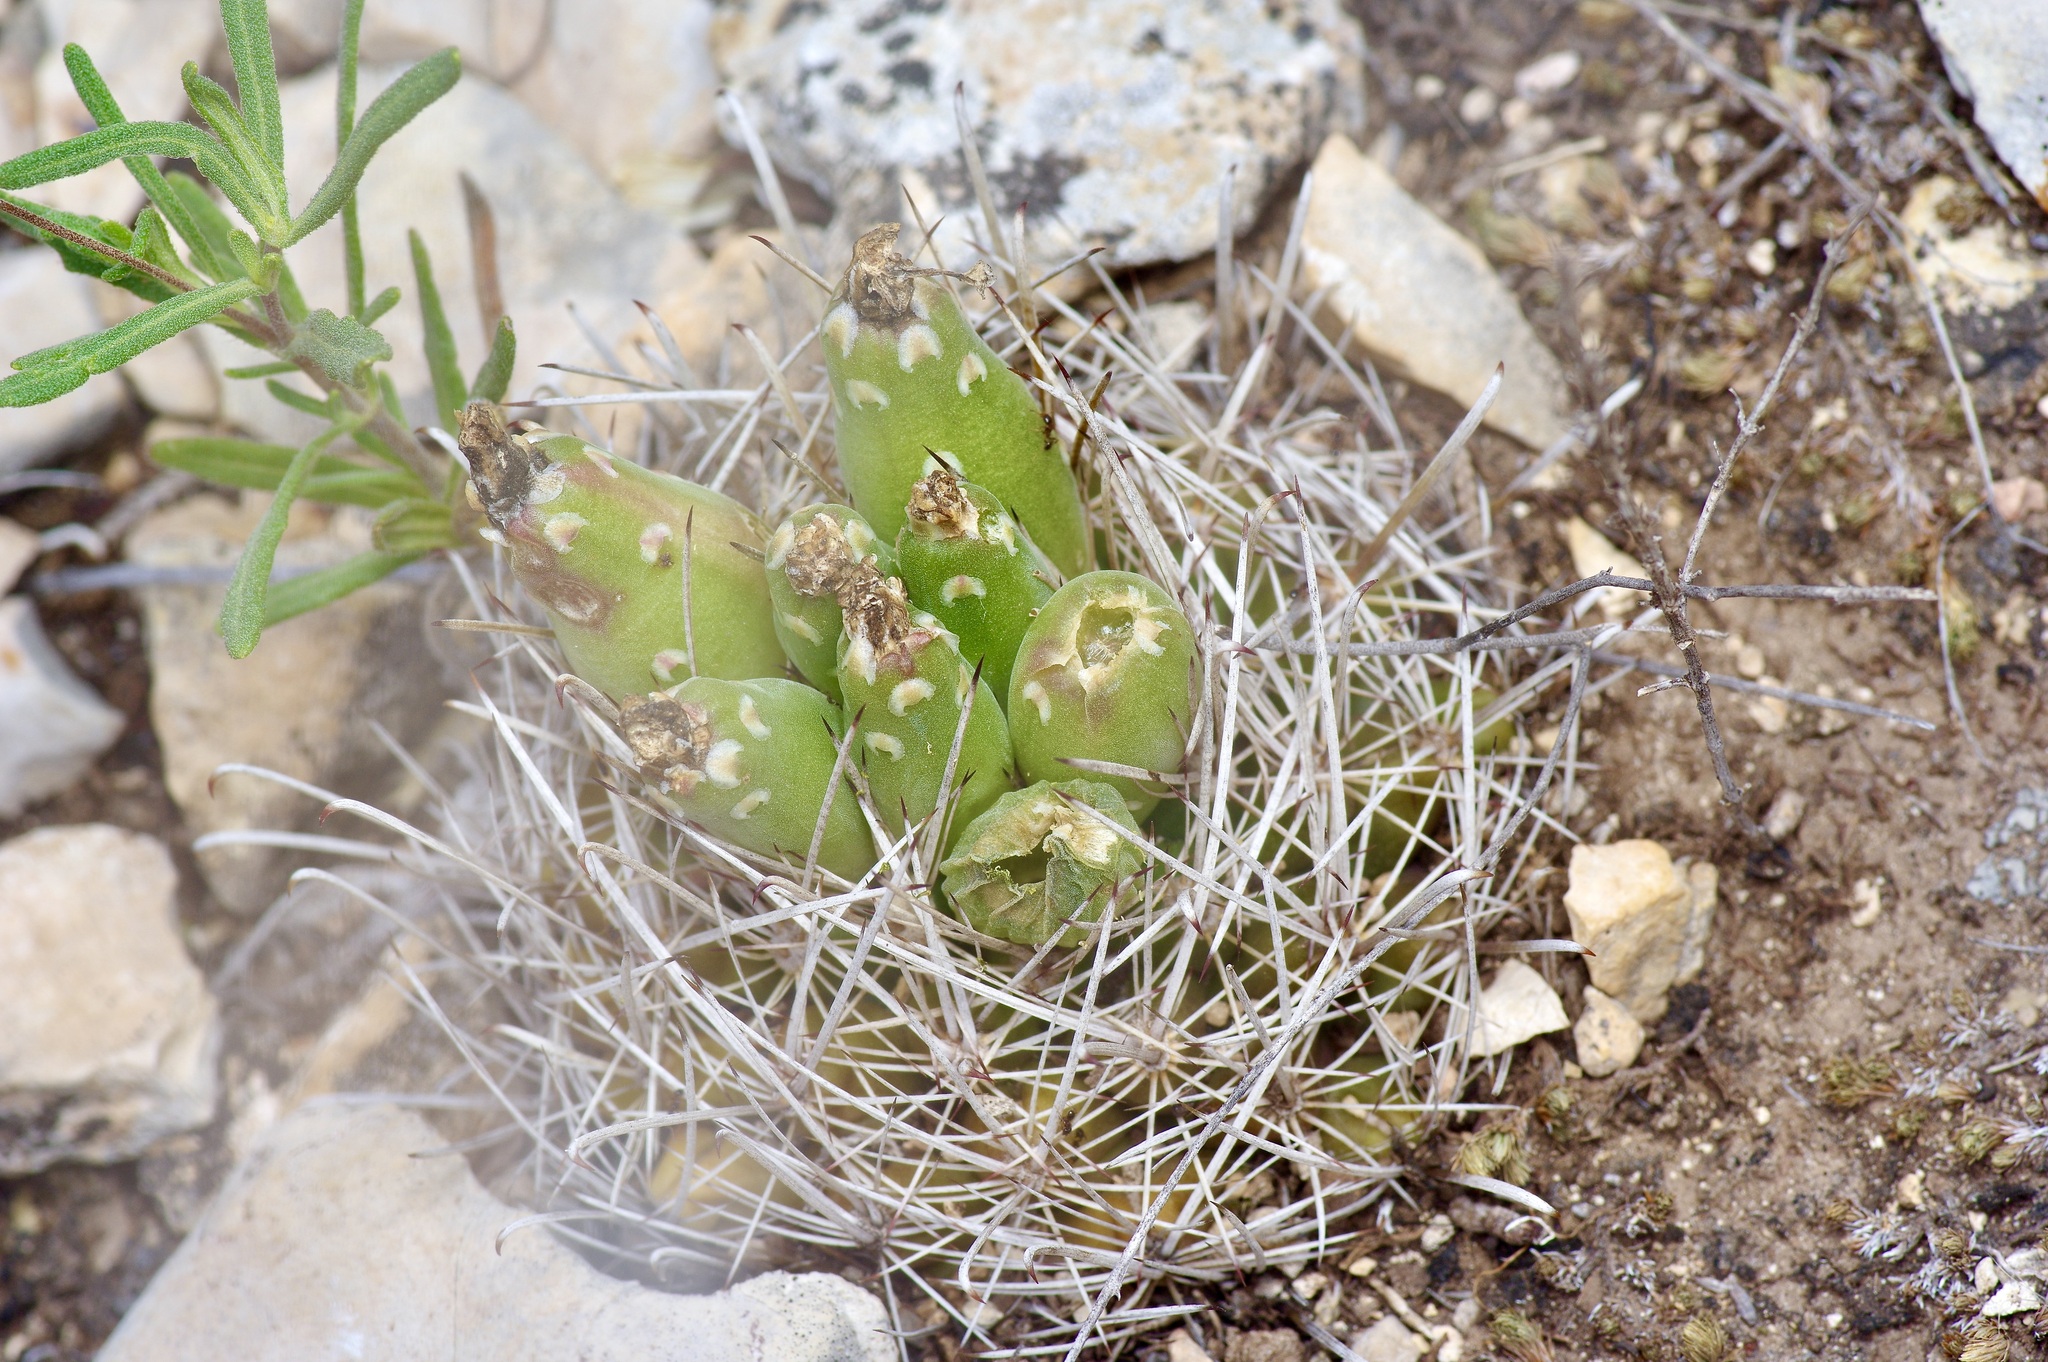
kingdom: Plantae
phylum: Tracheophyta
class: Magnoliopsida
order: Caryophyllales
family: Cactaceae
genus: Sclerocactus
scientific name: Sclerocactus brevihamatus
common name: Engelmann's fishhook cactus
